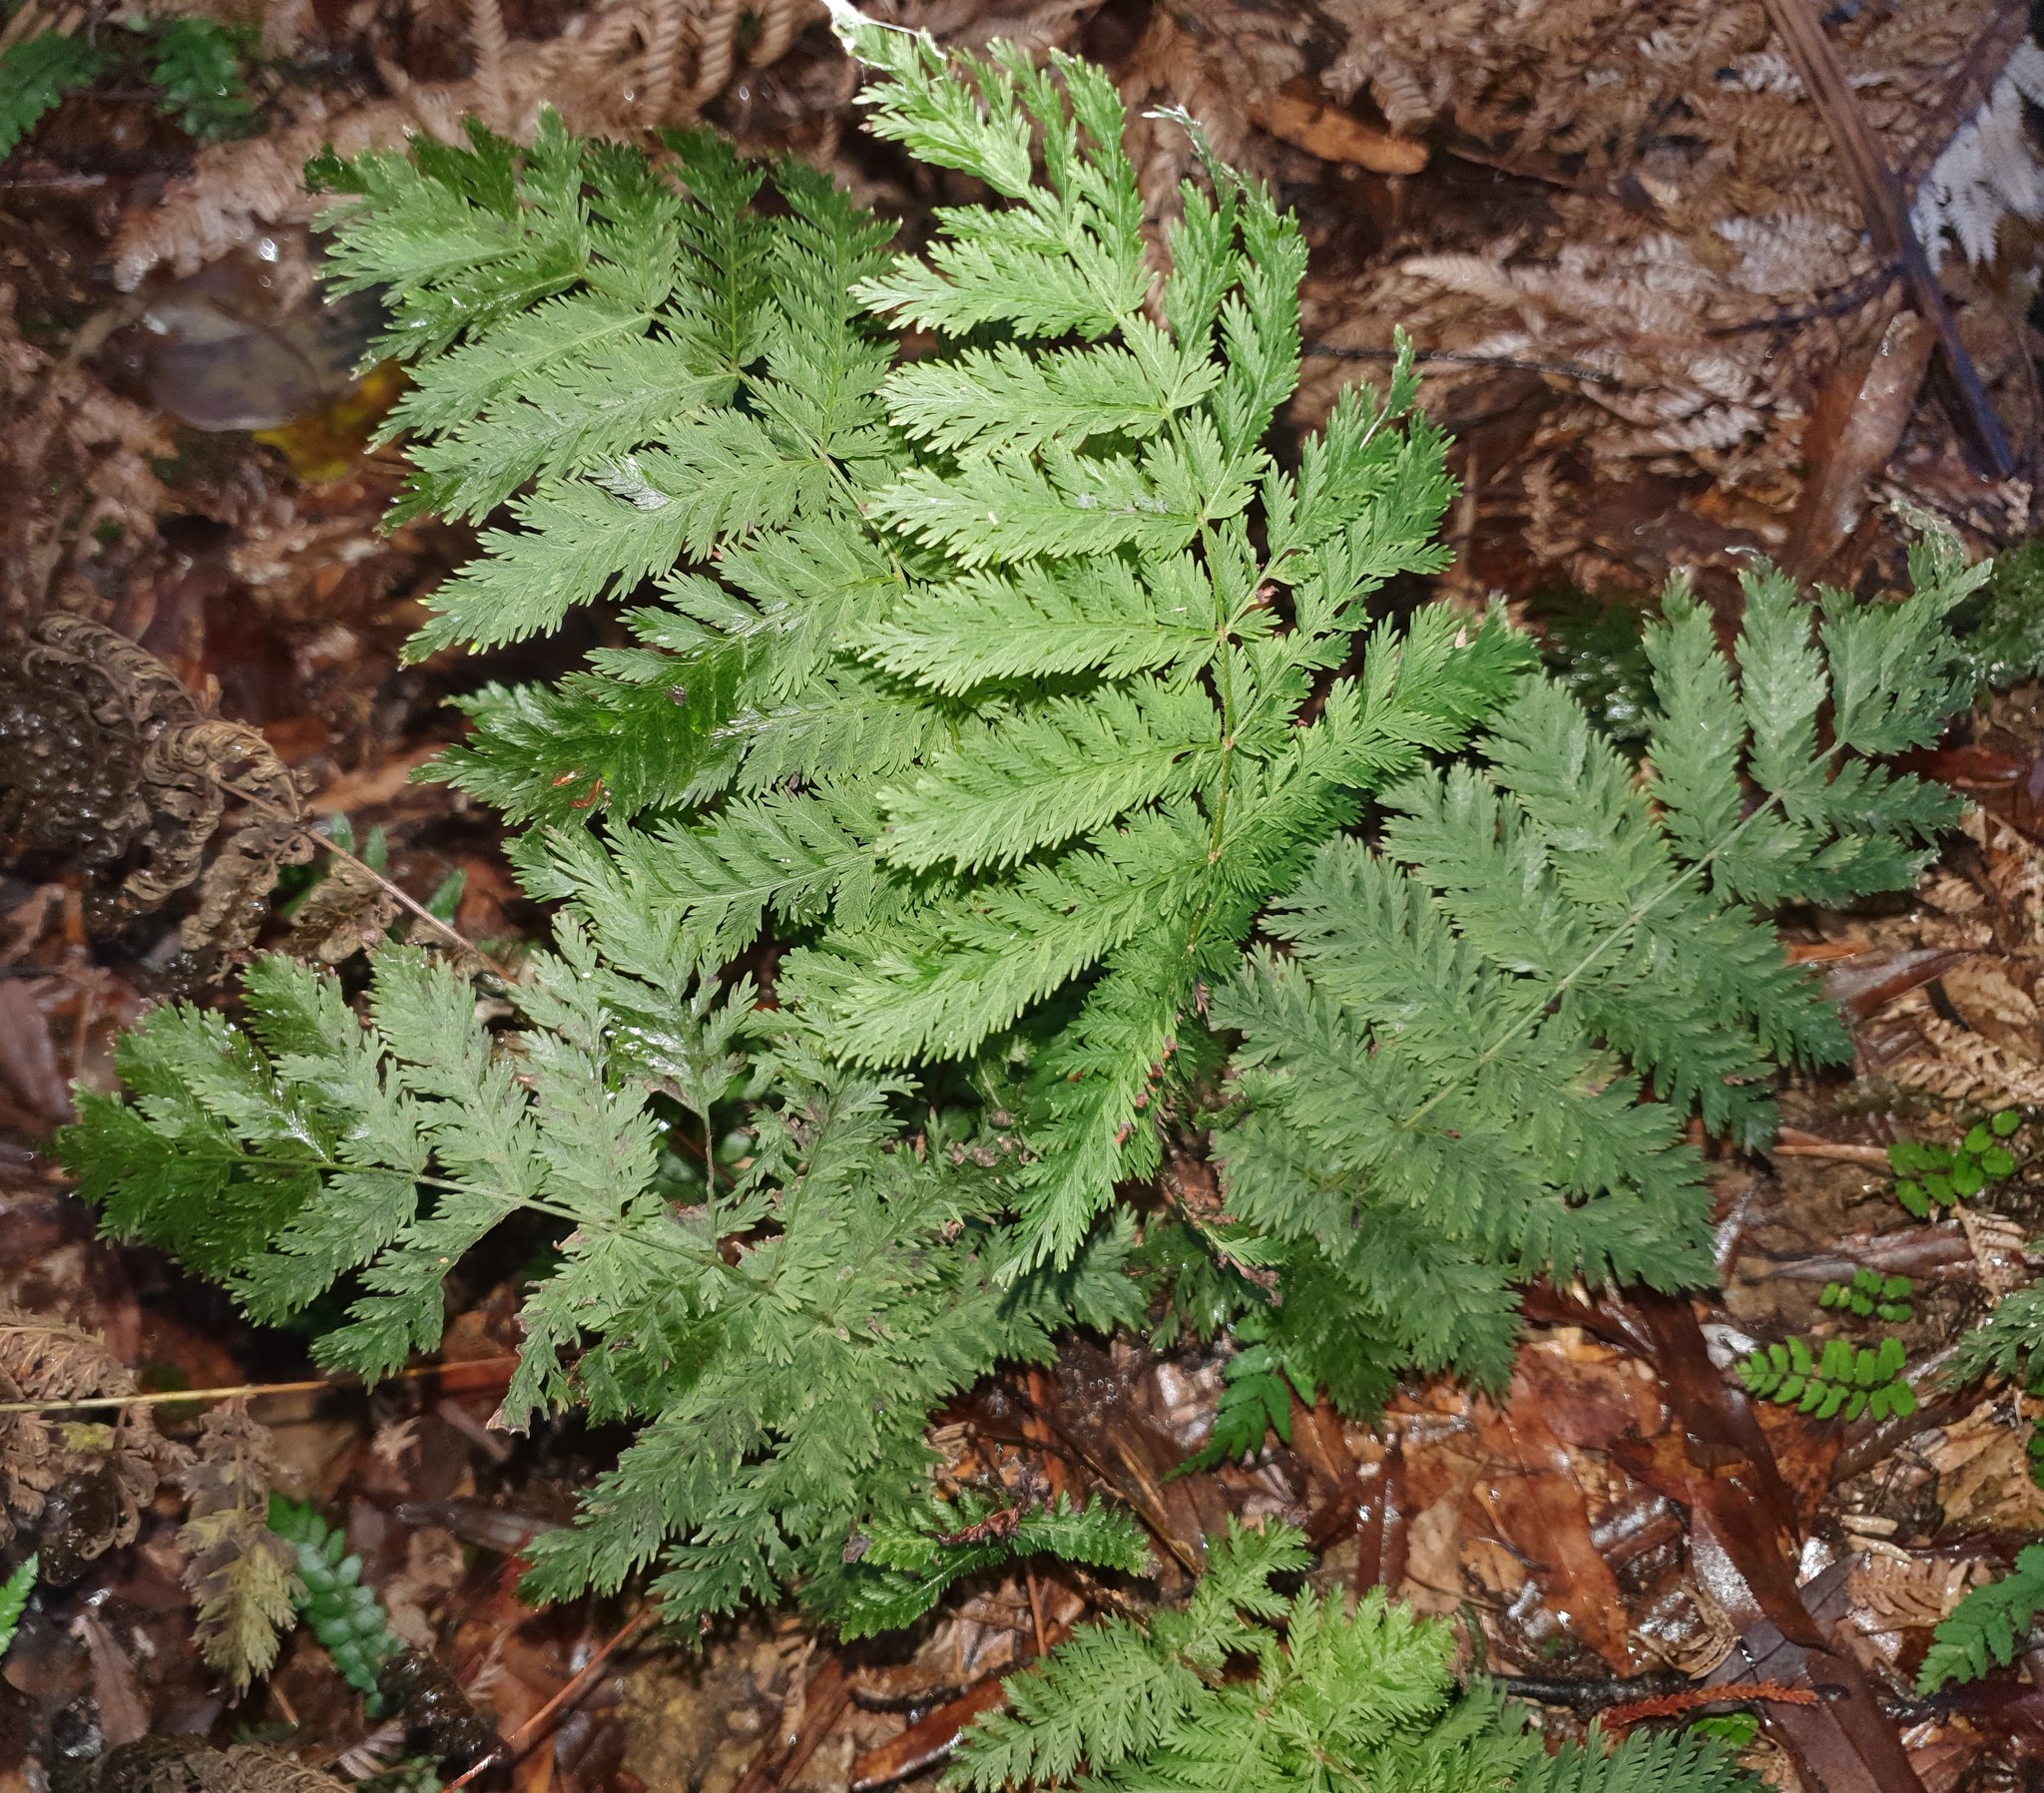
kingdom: Plantae
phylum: Tracheophyta
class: Polypodiopsida
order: Osmundales
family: Osmundaceae
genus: Leptopteris
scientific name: Leptopteris hymenophylloides
